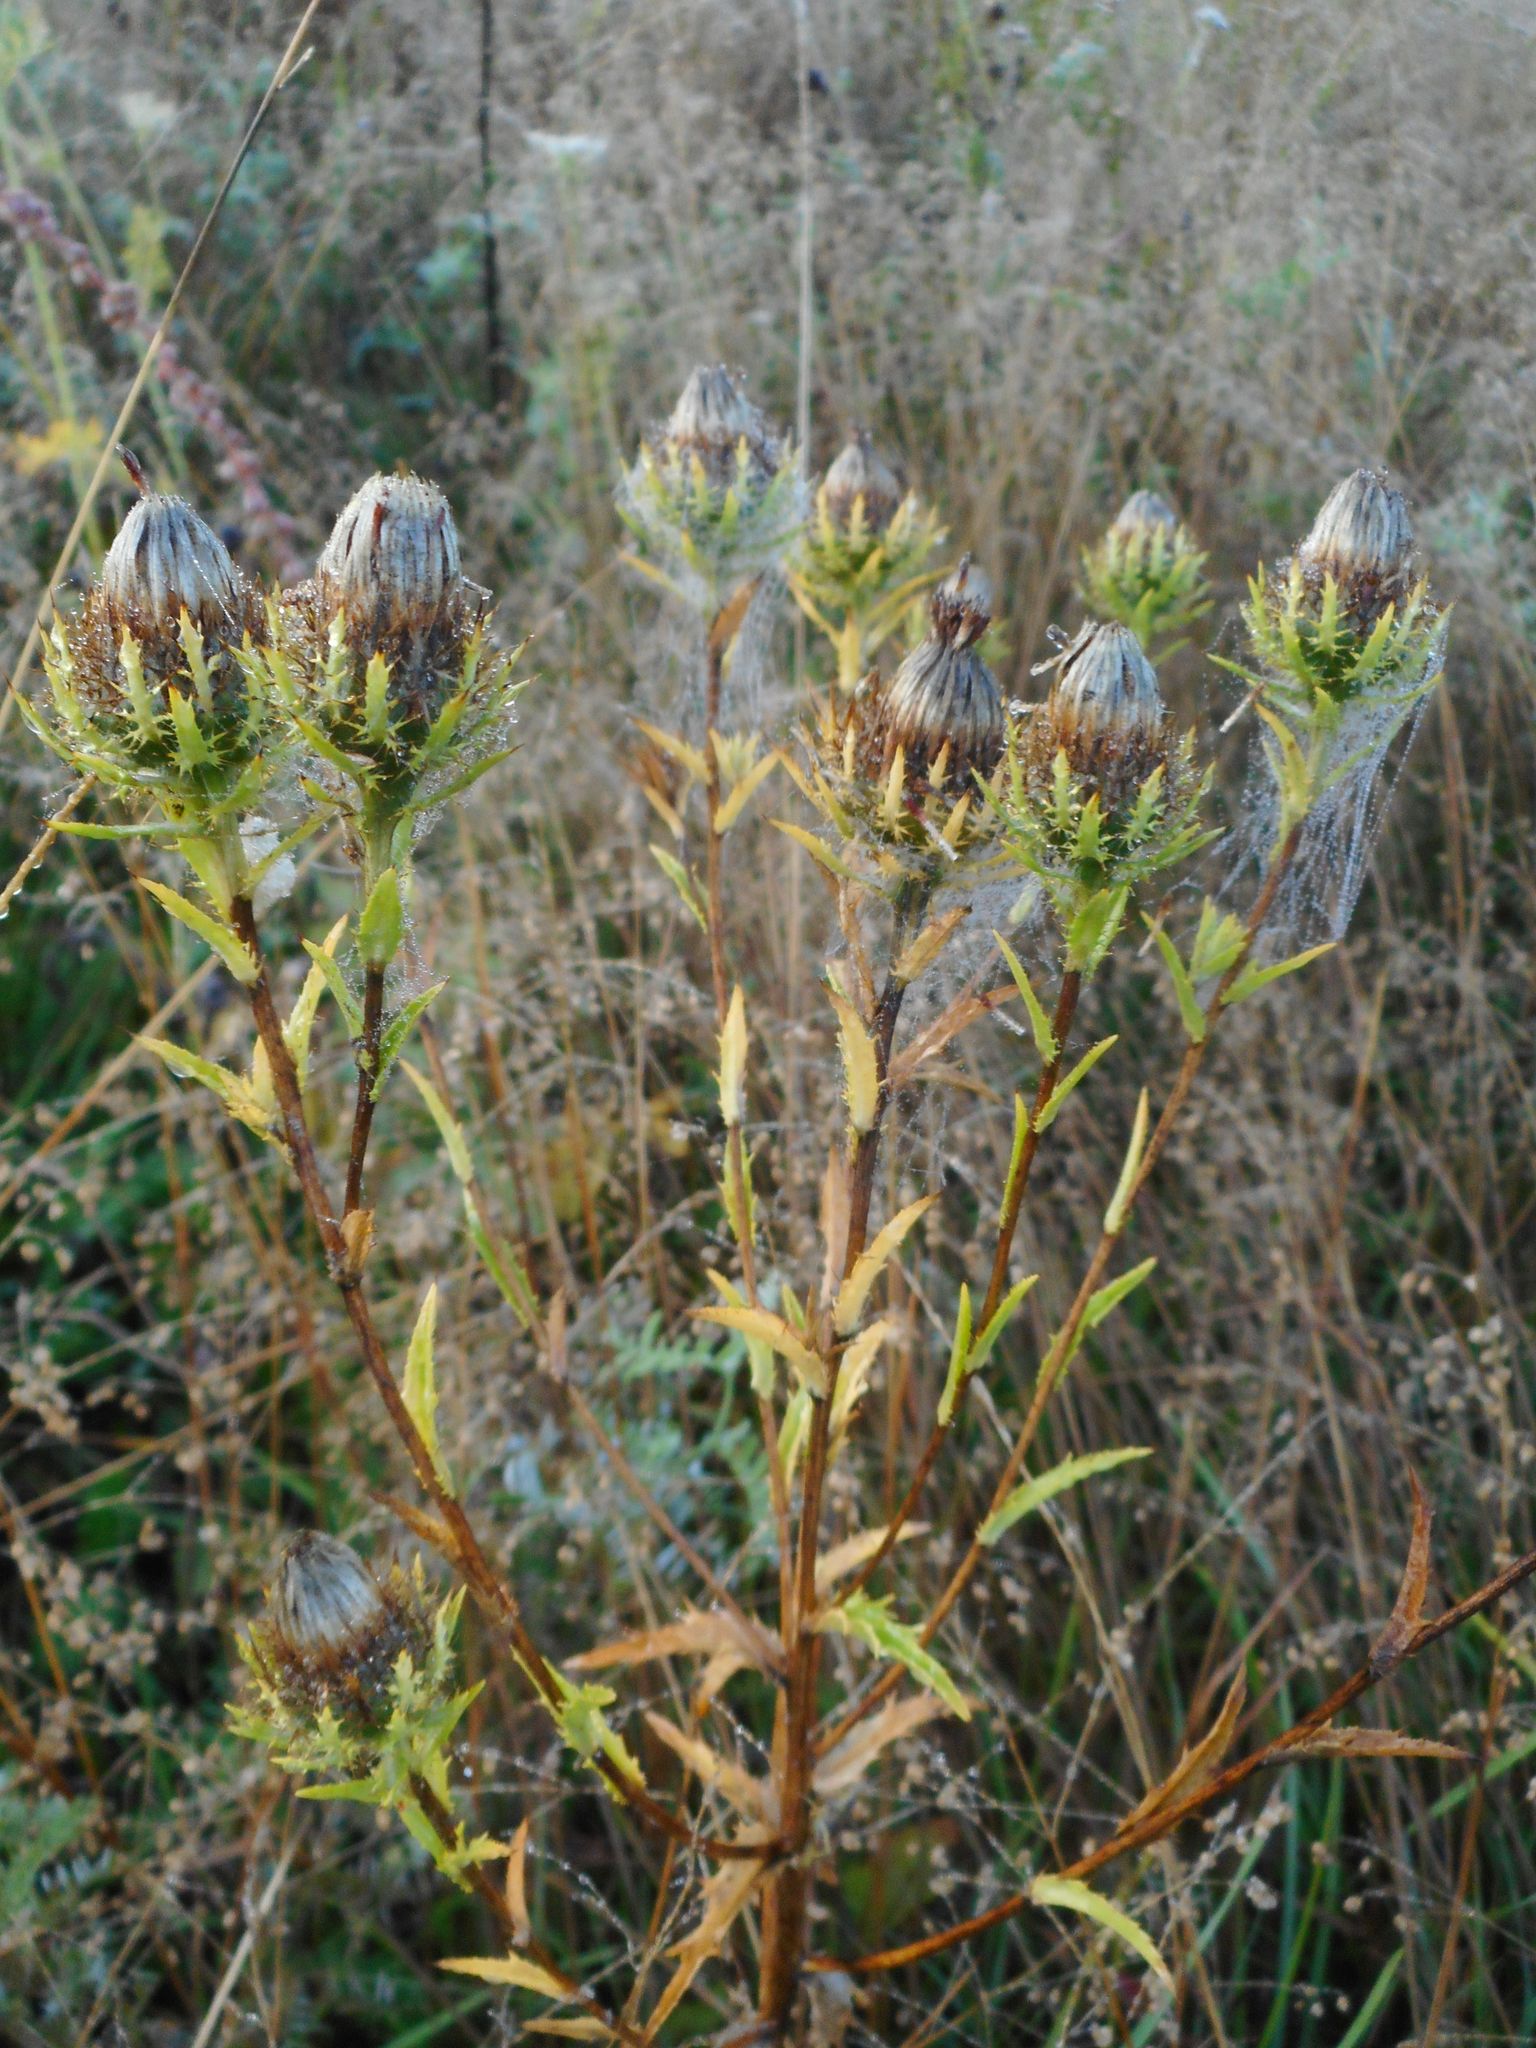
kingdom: Plantae
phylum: Tracheophyta
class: Magnoliopsida
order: Asterales
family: Asteraceae
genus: Carlina
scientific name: Carlina biebersteinii
